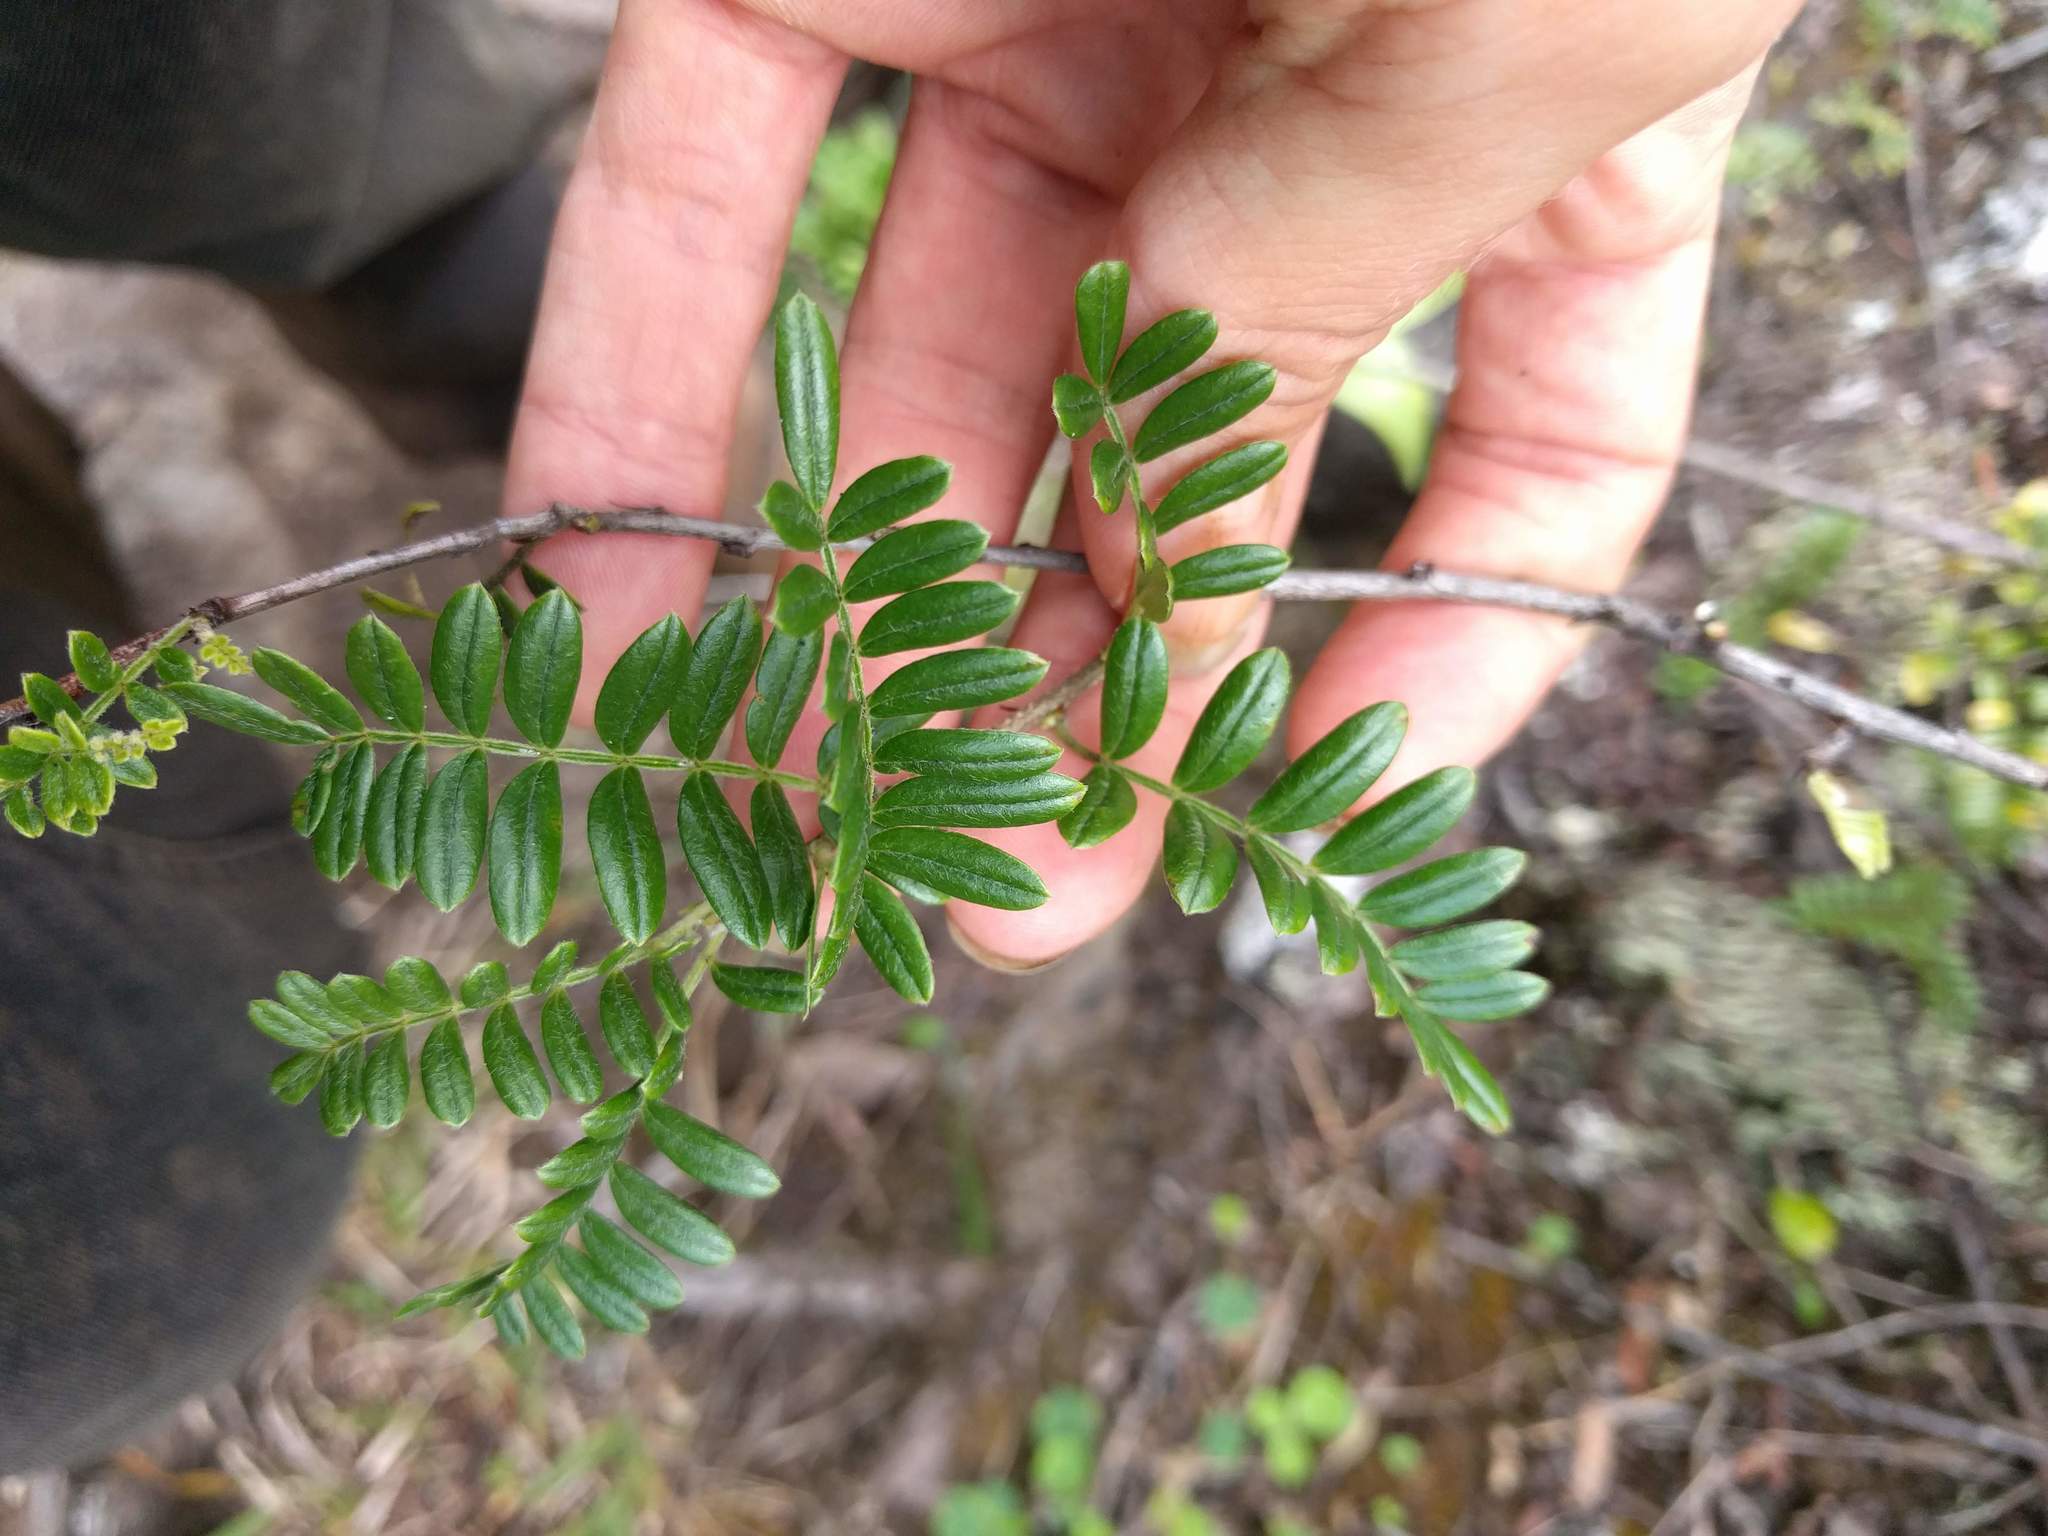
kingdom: Plantae
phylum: Tracheophyta
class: Magnoliopsida
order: Rosales
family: Rosaceae
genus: Osteomeles
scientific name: Osteomeles anthyllidifolia
